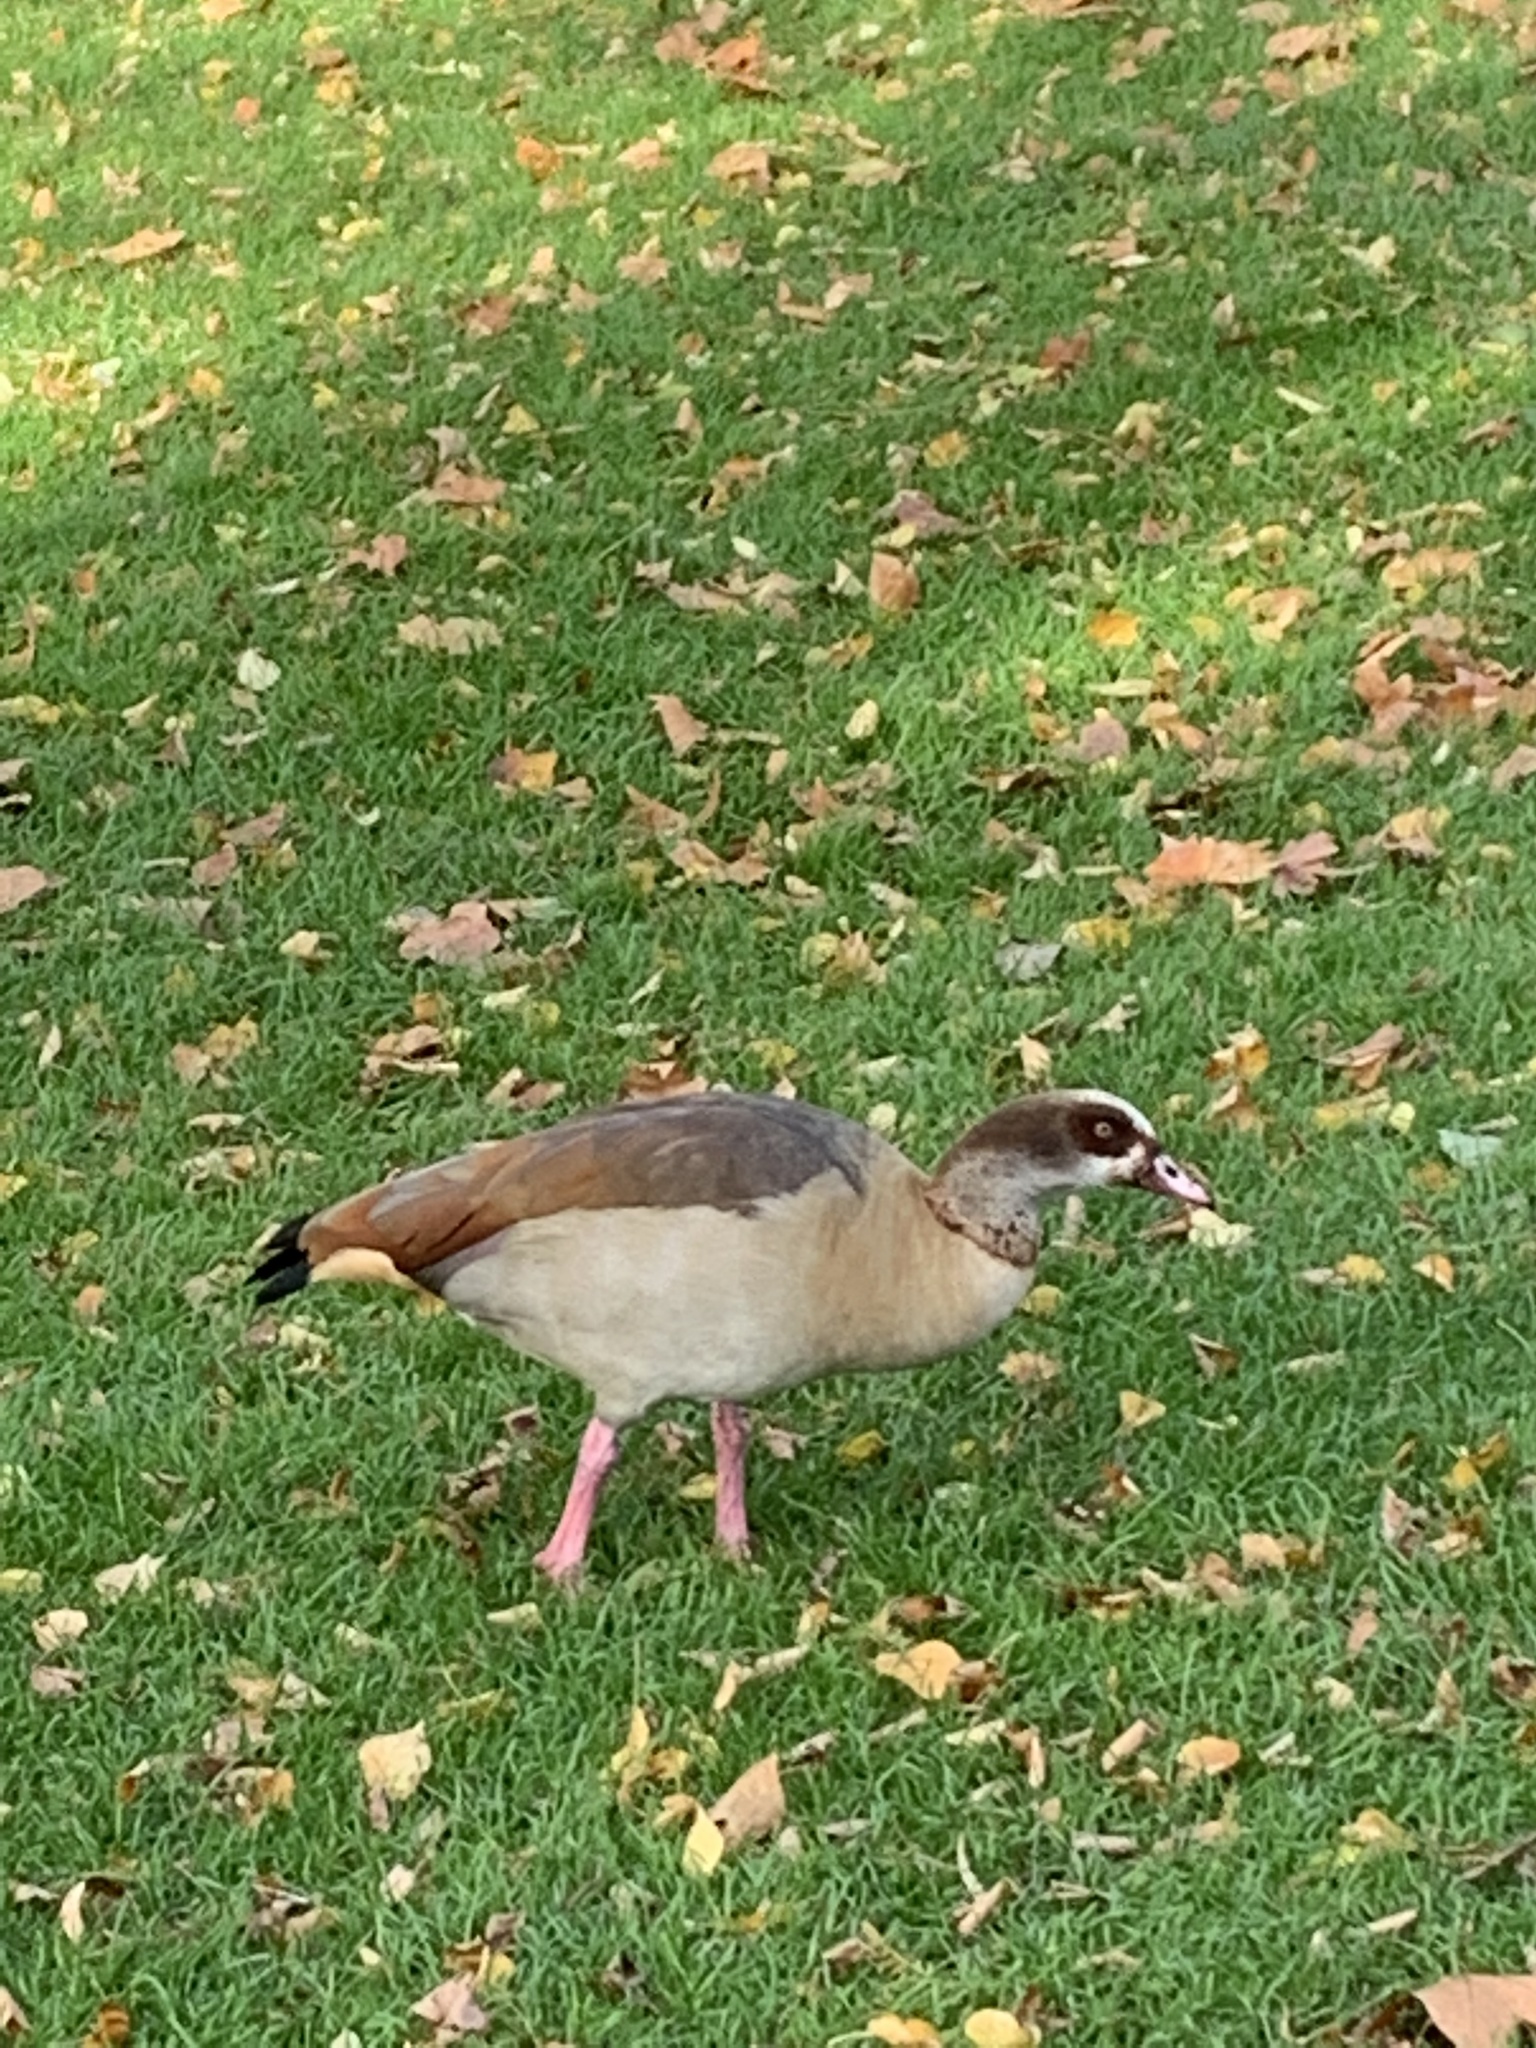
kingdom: Animalia
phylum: Chordata
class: Aves
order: Anseriformes
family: Anatidae
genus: Alopochen
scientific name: Alopochen aegyptiaca
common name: Egyptian goose
